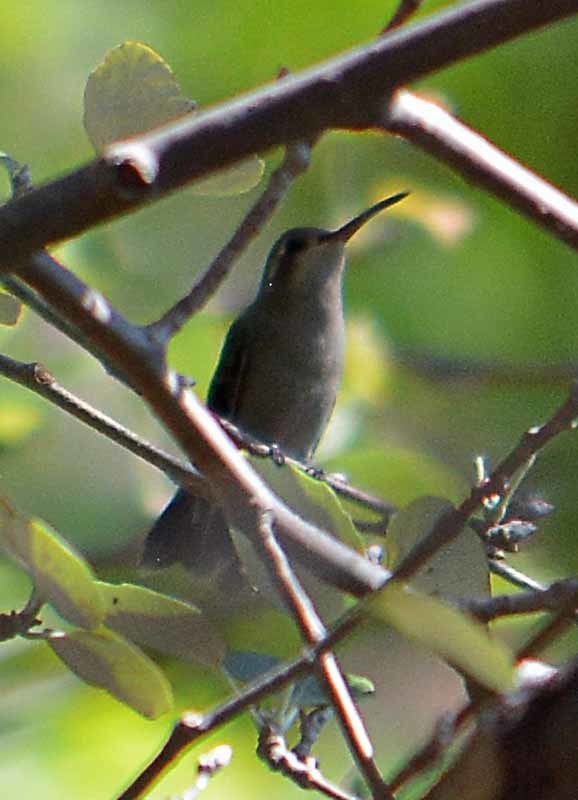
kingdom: Animalia
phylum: Chordata
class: Aves
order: Apodiformes
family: Trochilidae
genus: Cynanthus
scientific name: Cynanthus latirostris
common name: Broad-billed hummingbird
